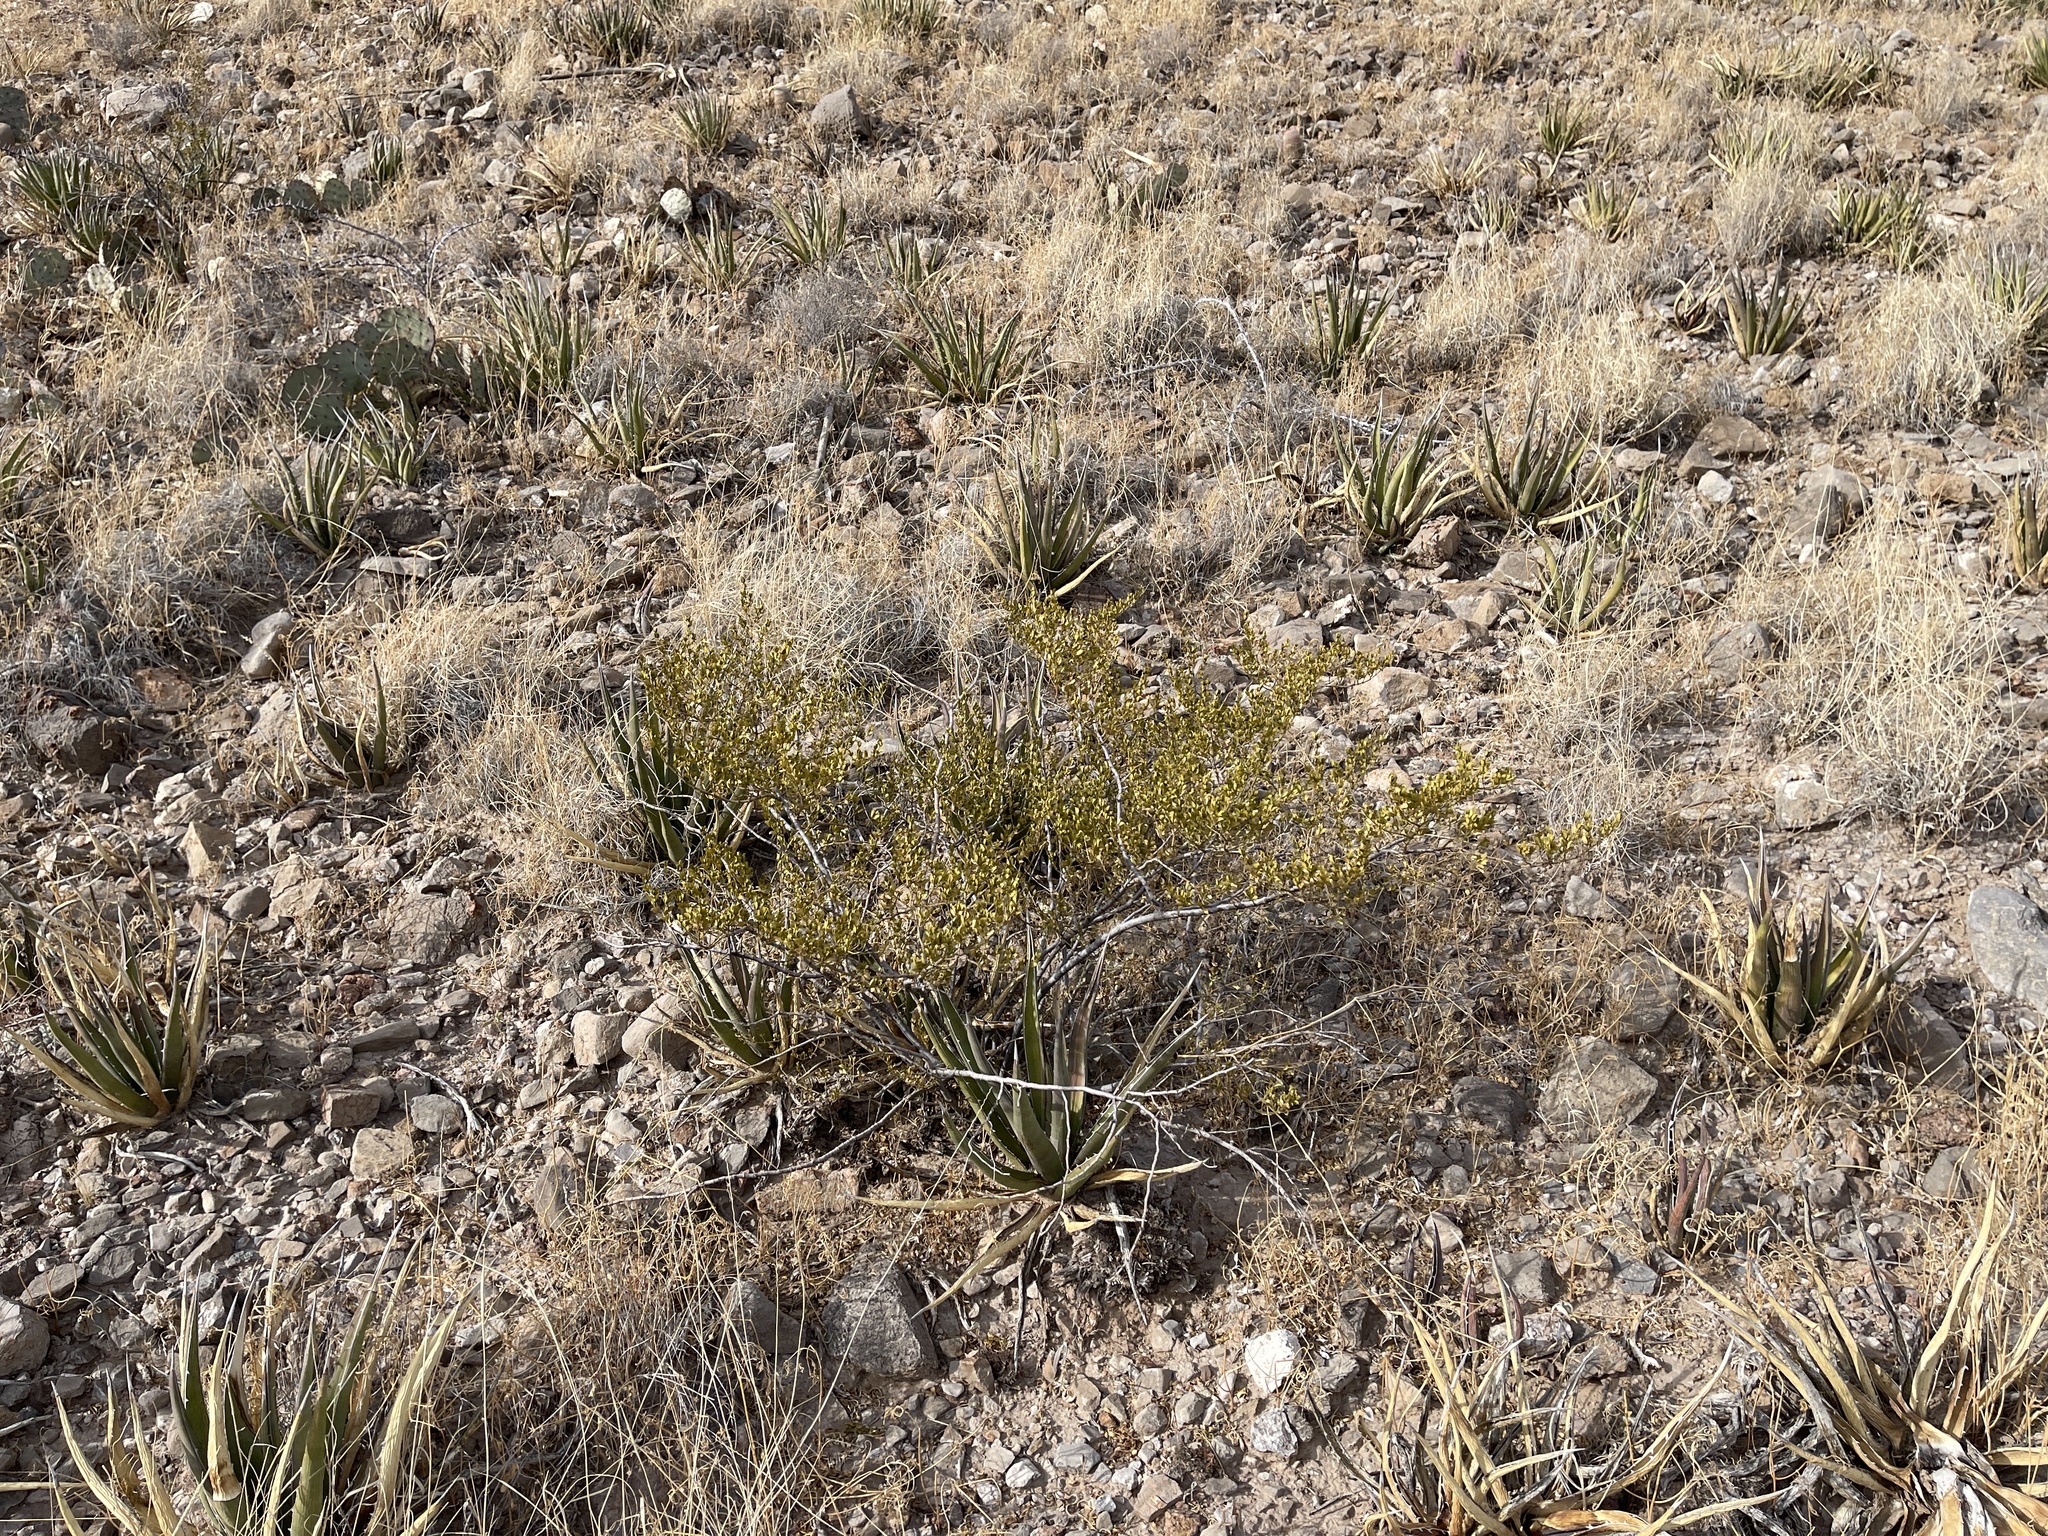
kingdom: Plantae
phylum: Tracheophyta
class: Magnoliopsida
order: Zygophyllales
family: Zygophyllaceae
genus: Larrea
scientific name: Larrea tridentata
